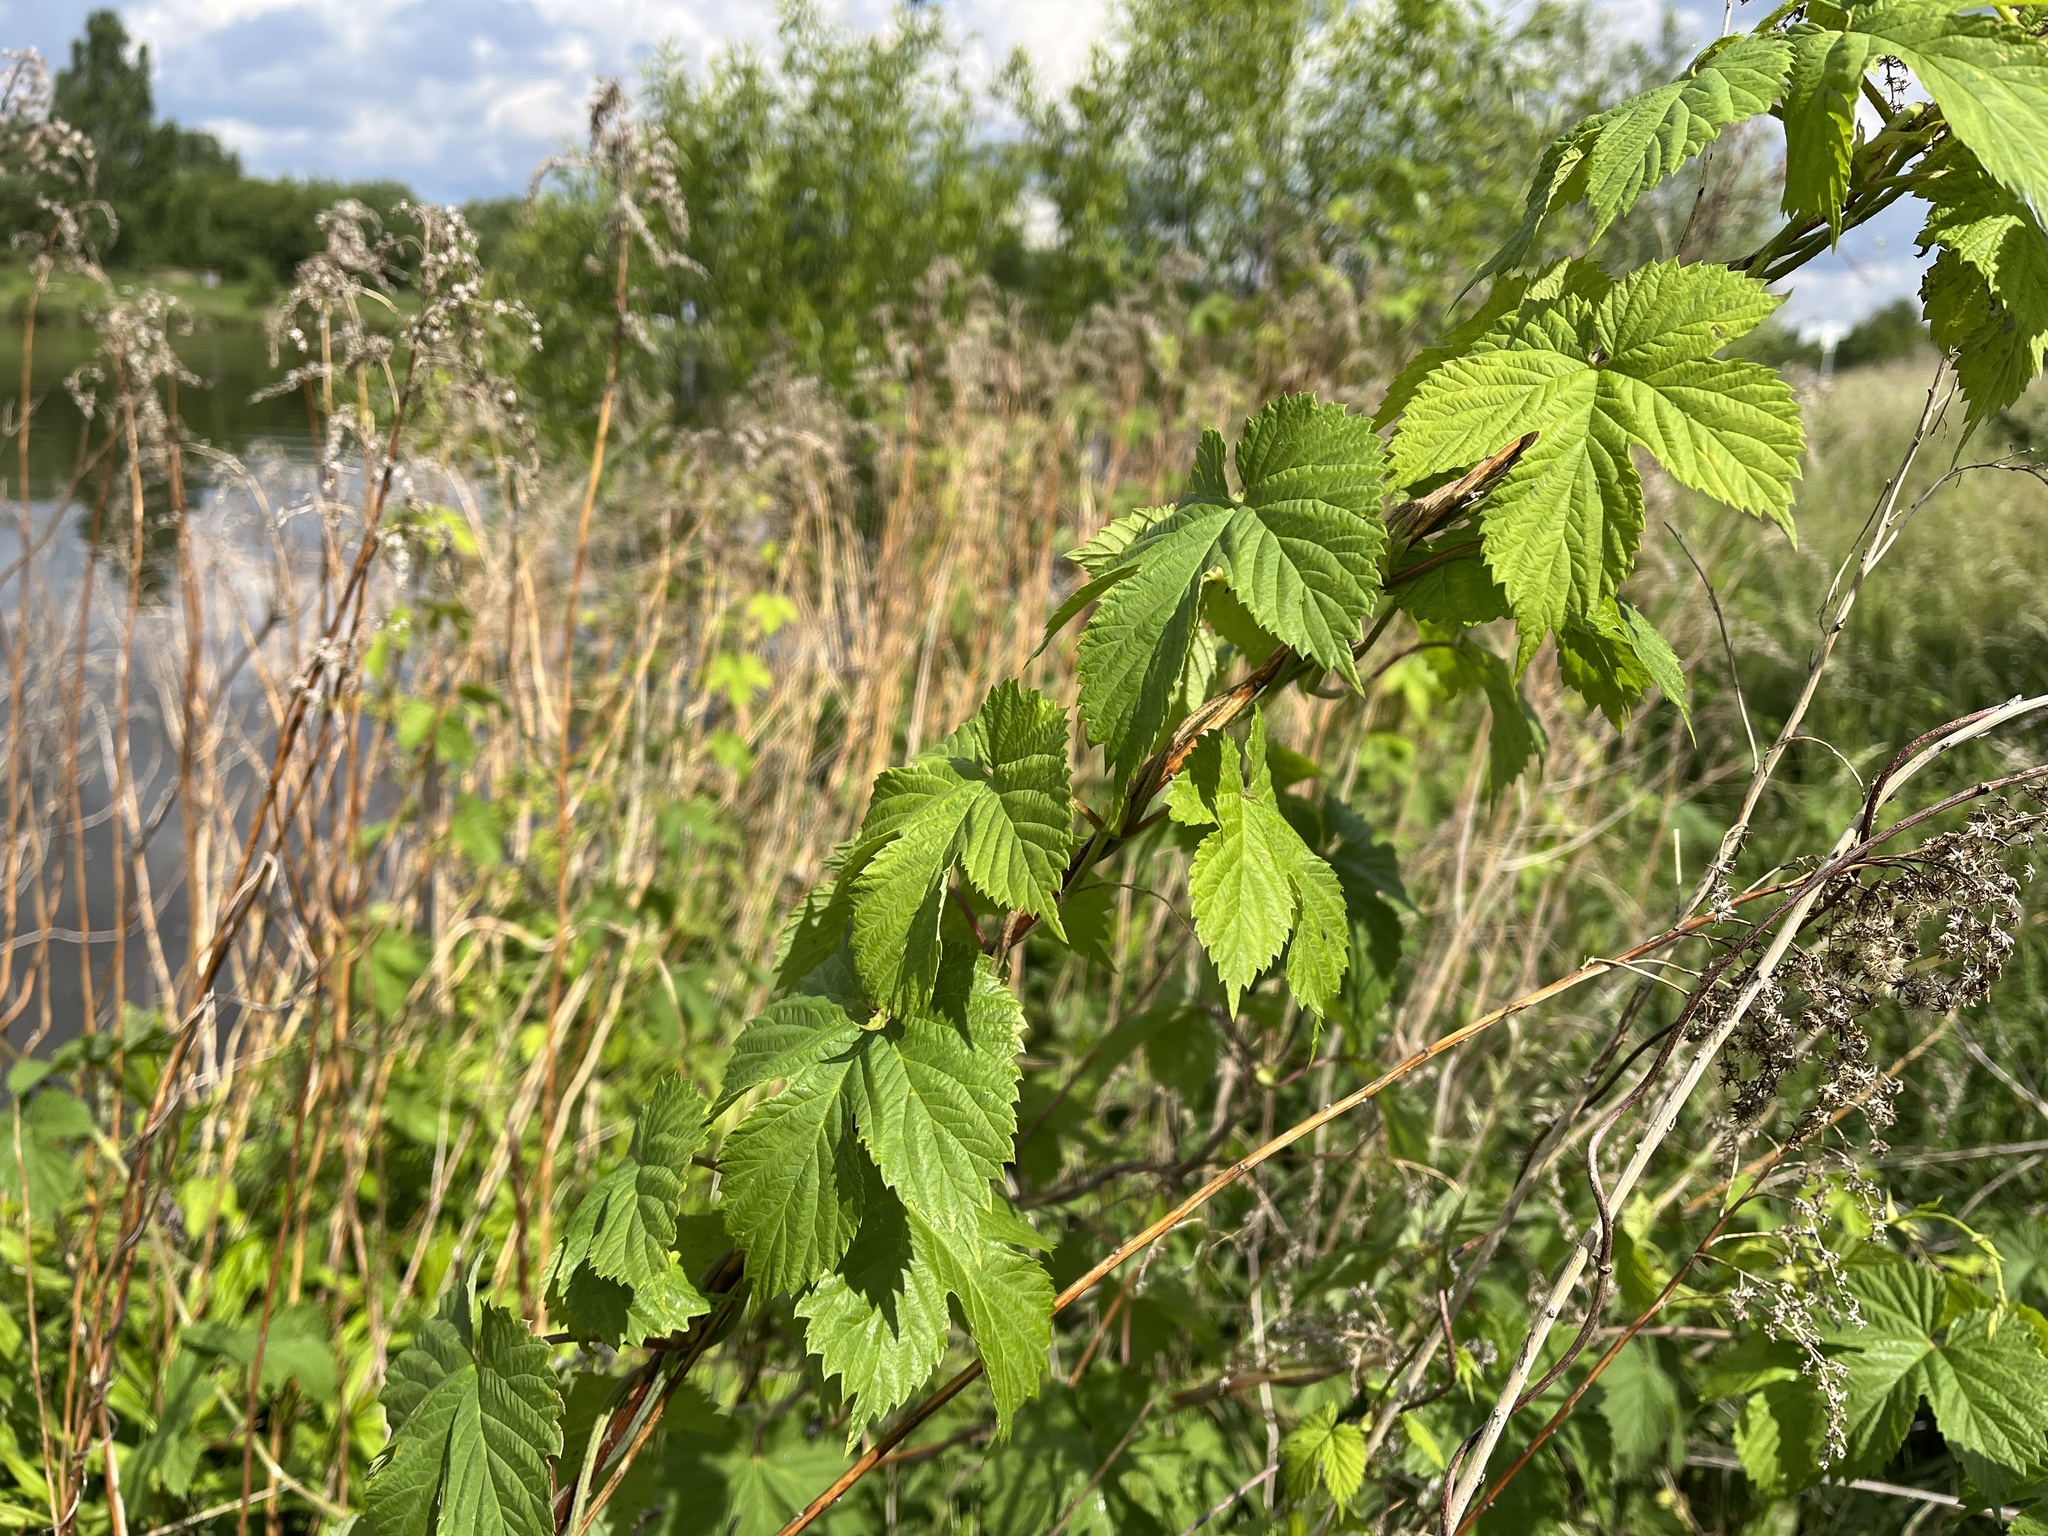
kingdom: Plantae
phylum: Tracheophyta
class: Magnoliopsida
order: Rosales
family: Cannabaceae
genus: Humulus
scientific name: Humulus lupulus
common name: Hop
